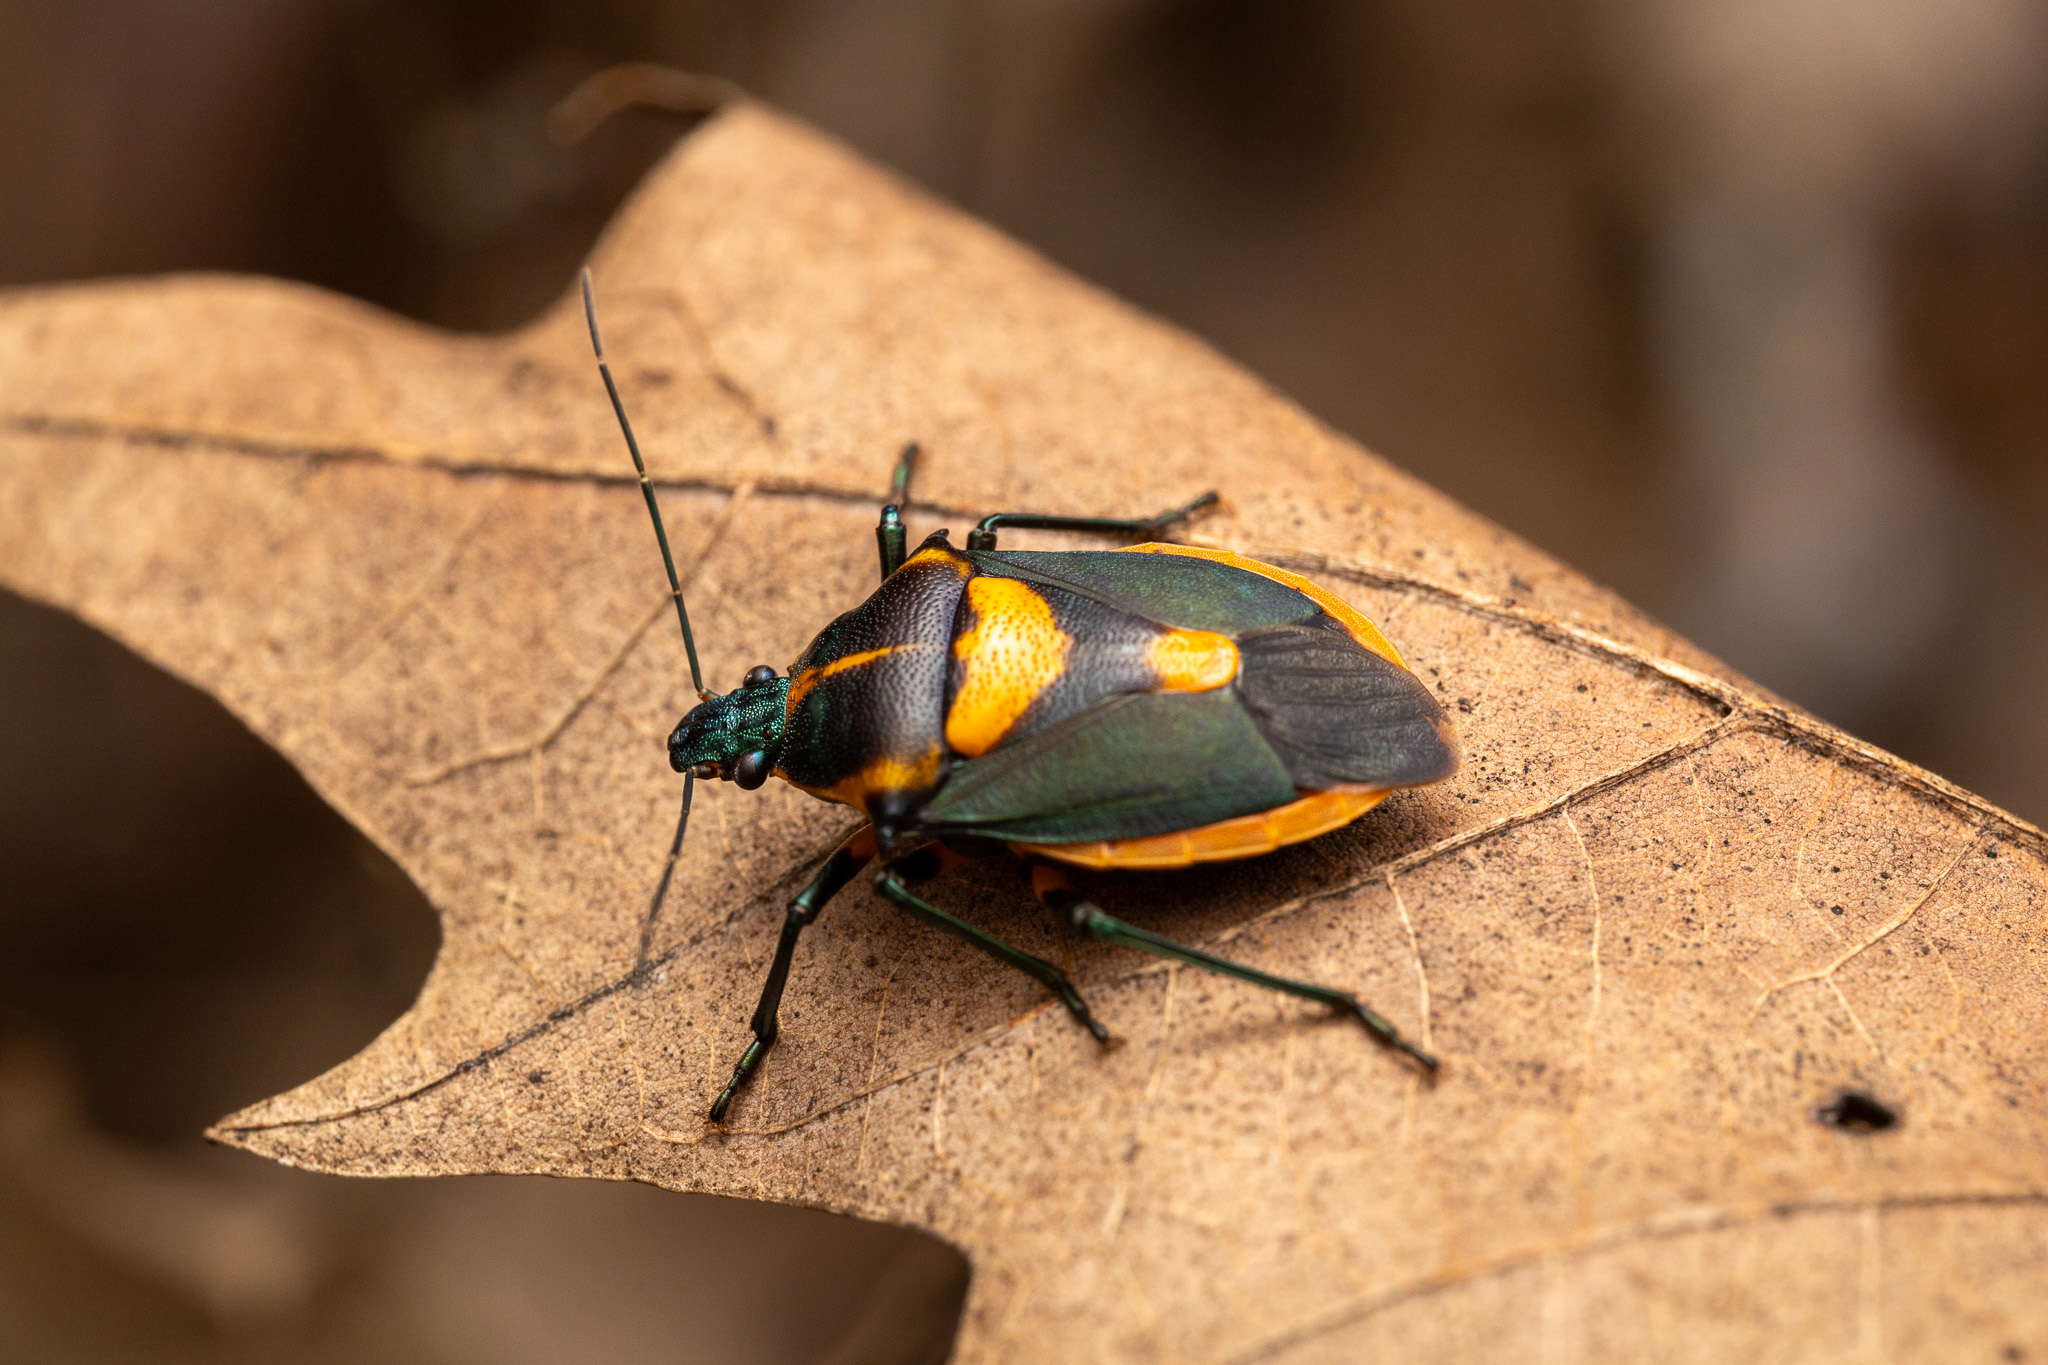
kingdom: Animalia
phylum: Arthropoda
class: Insecta
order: Hemiptera
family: Pentatomidae
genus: Euthyrhynchus
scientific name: Euthyrhynchus floridanus
